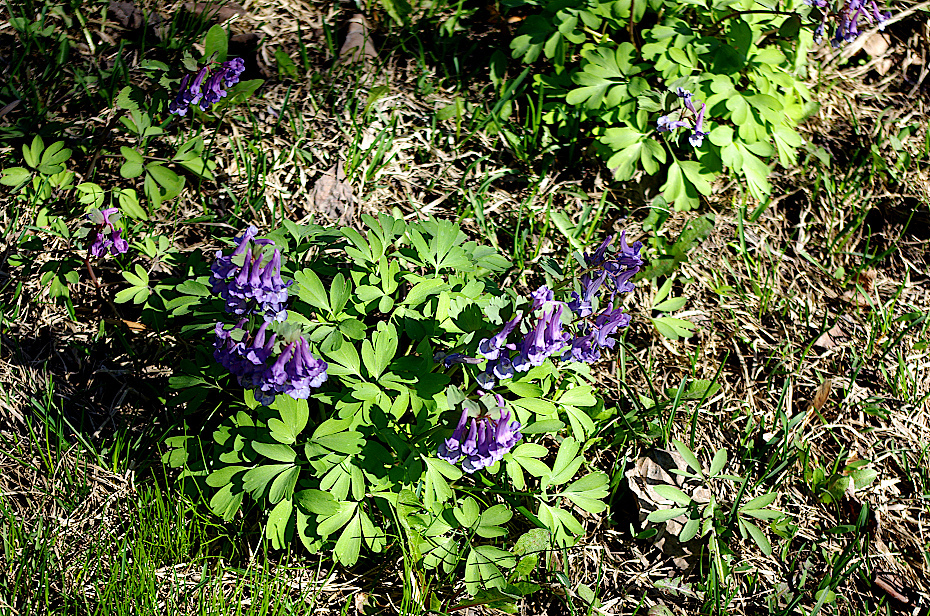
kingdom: Plantae
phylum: Tracheophyta
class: Magnoliopsida
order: Ranunculales
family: Papaveraceae
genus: Corydalis
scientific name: Corydalis solida
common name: Bird-in-a-bush
